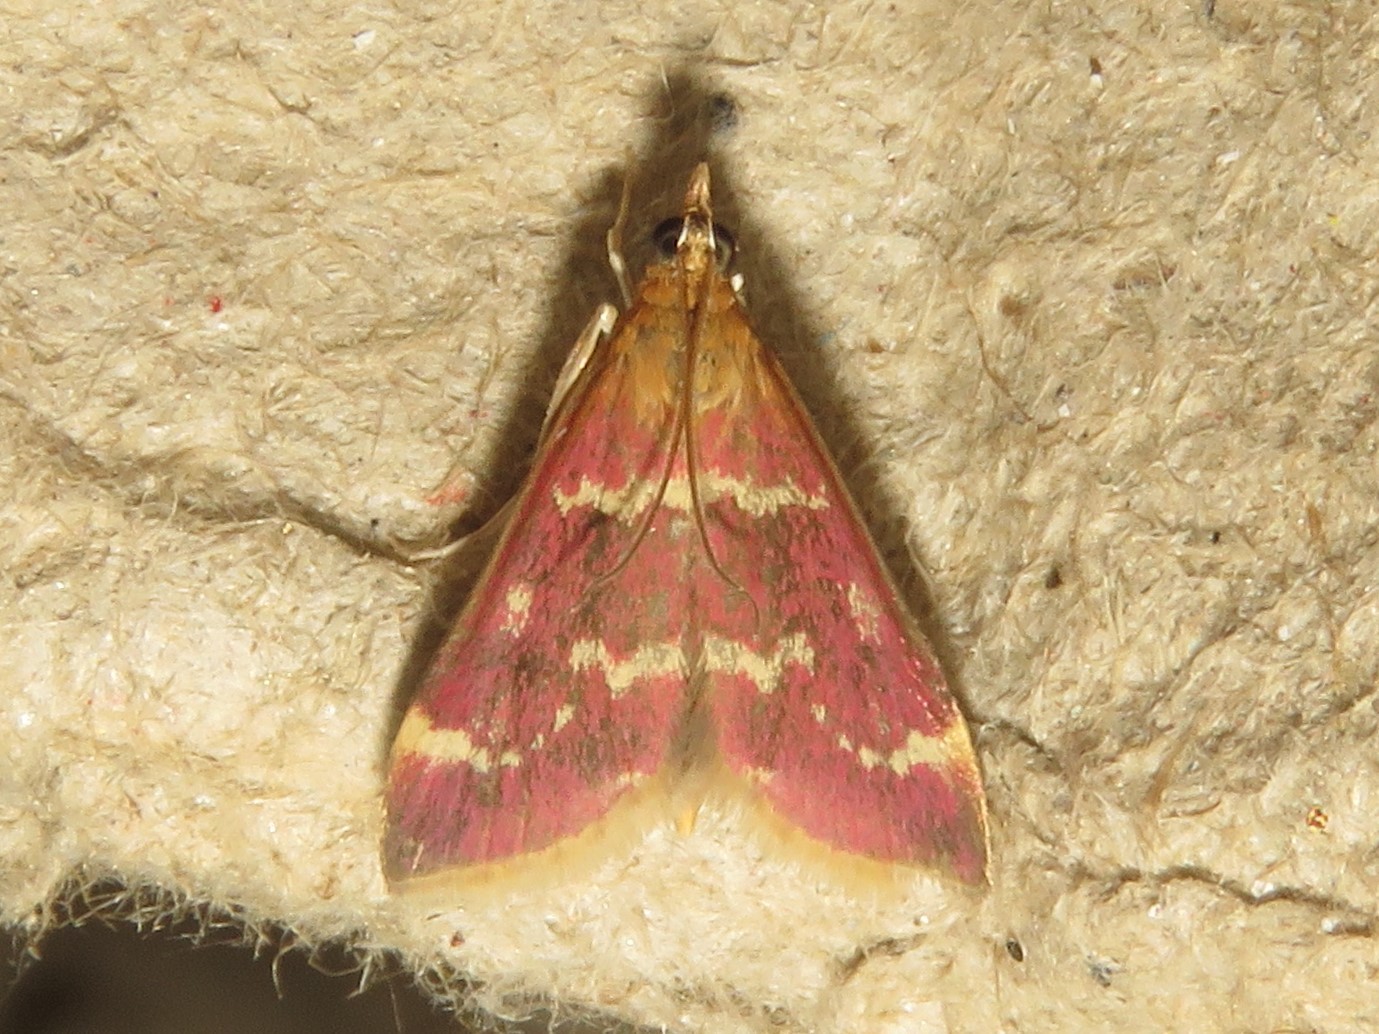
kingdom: Animalia
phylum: Arthropoda
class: Insecta
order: Lepidoptera
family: Crambidae
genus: Pyrausta
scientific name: Pyrausta signatalis
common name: Raspberry pyrausta moth
